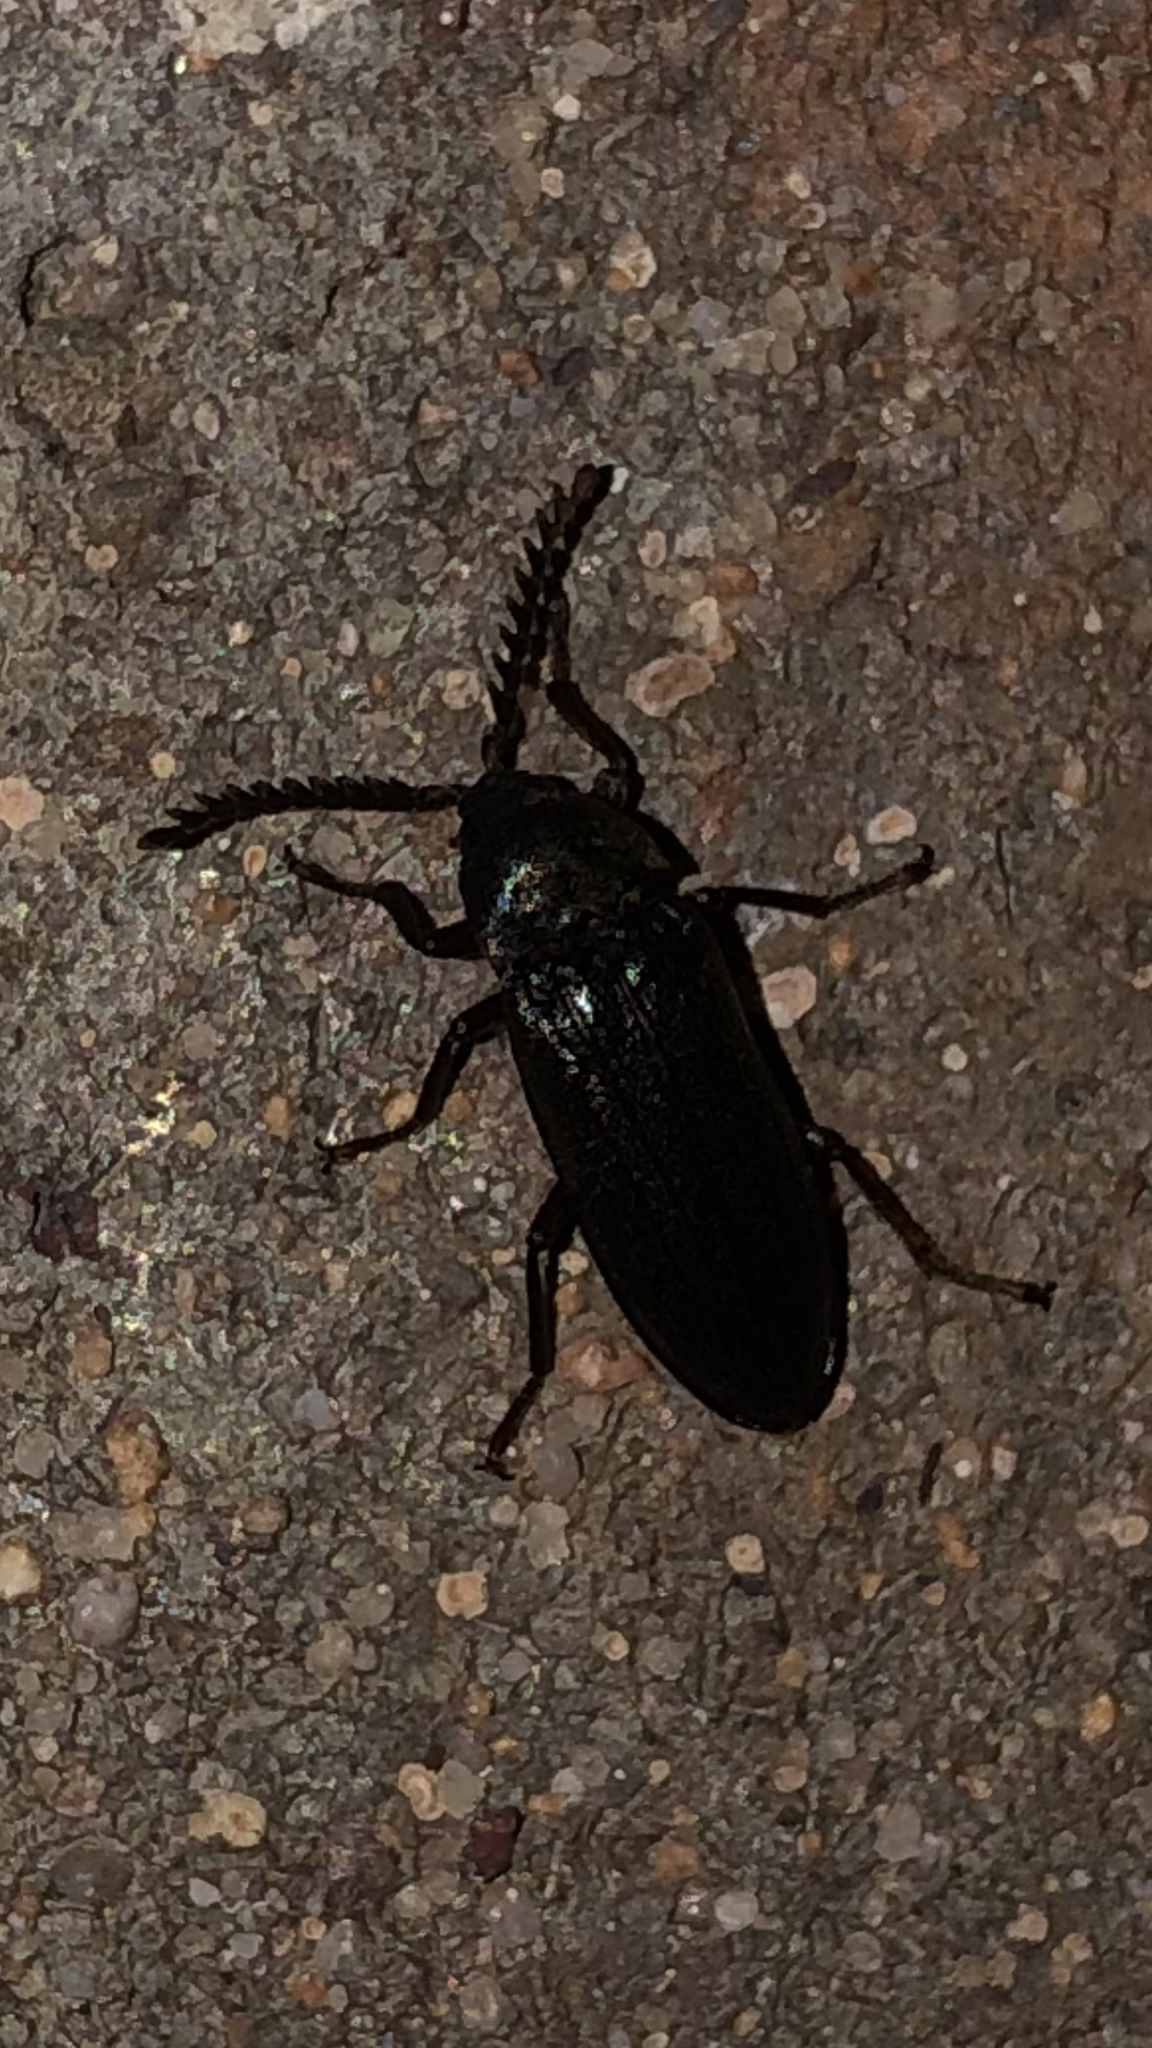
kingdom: Animalia
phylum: Arthropoda
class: Insecta
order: Coleoptera
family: Callirhipidae
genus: Zenoa
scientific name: Zenoa picea
